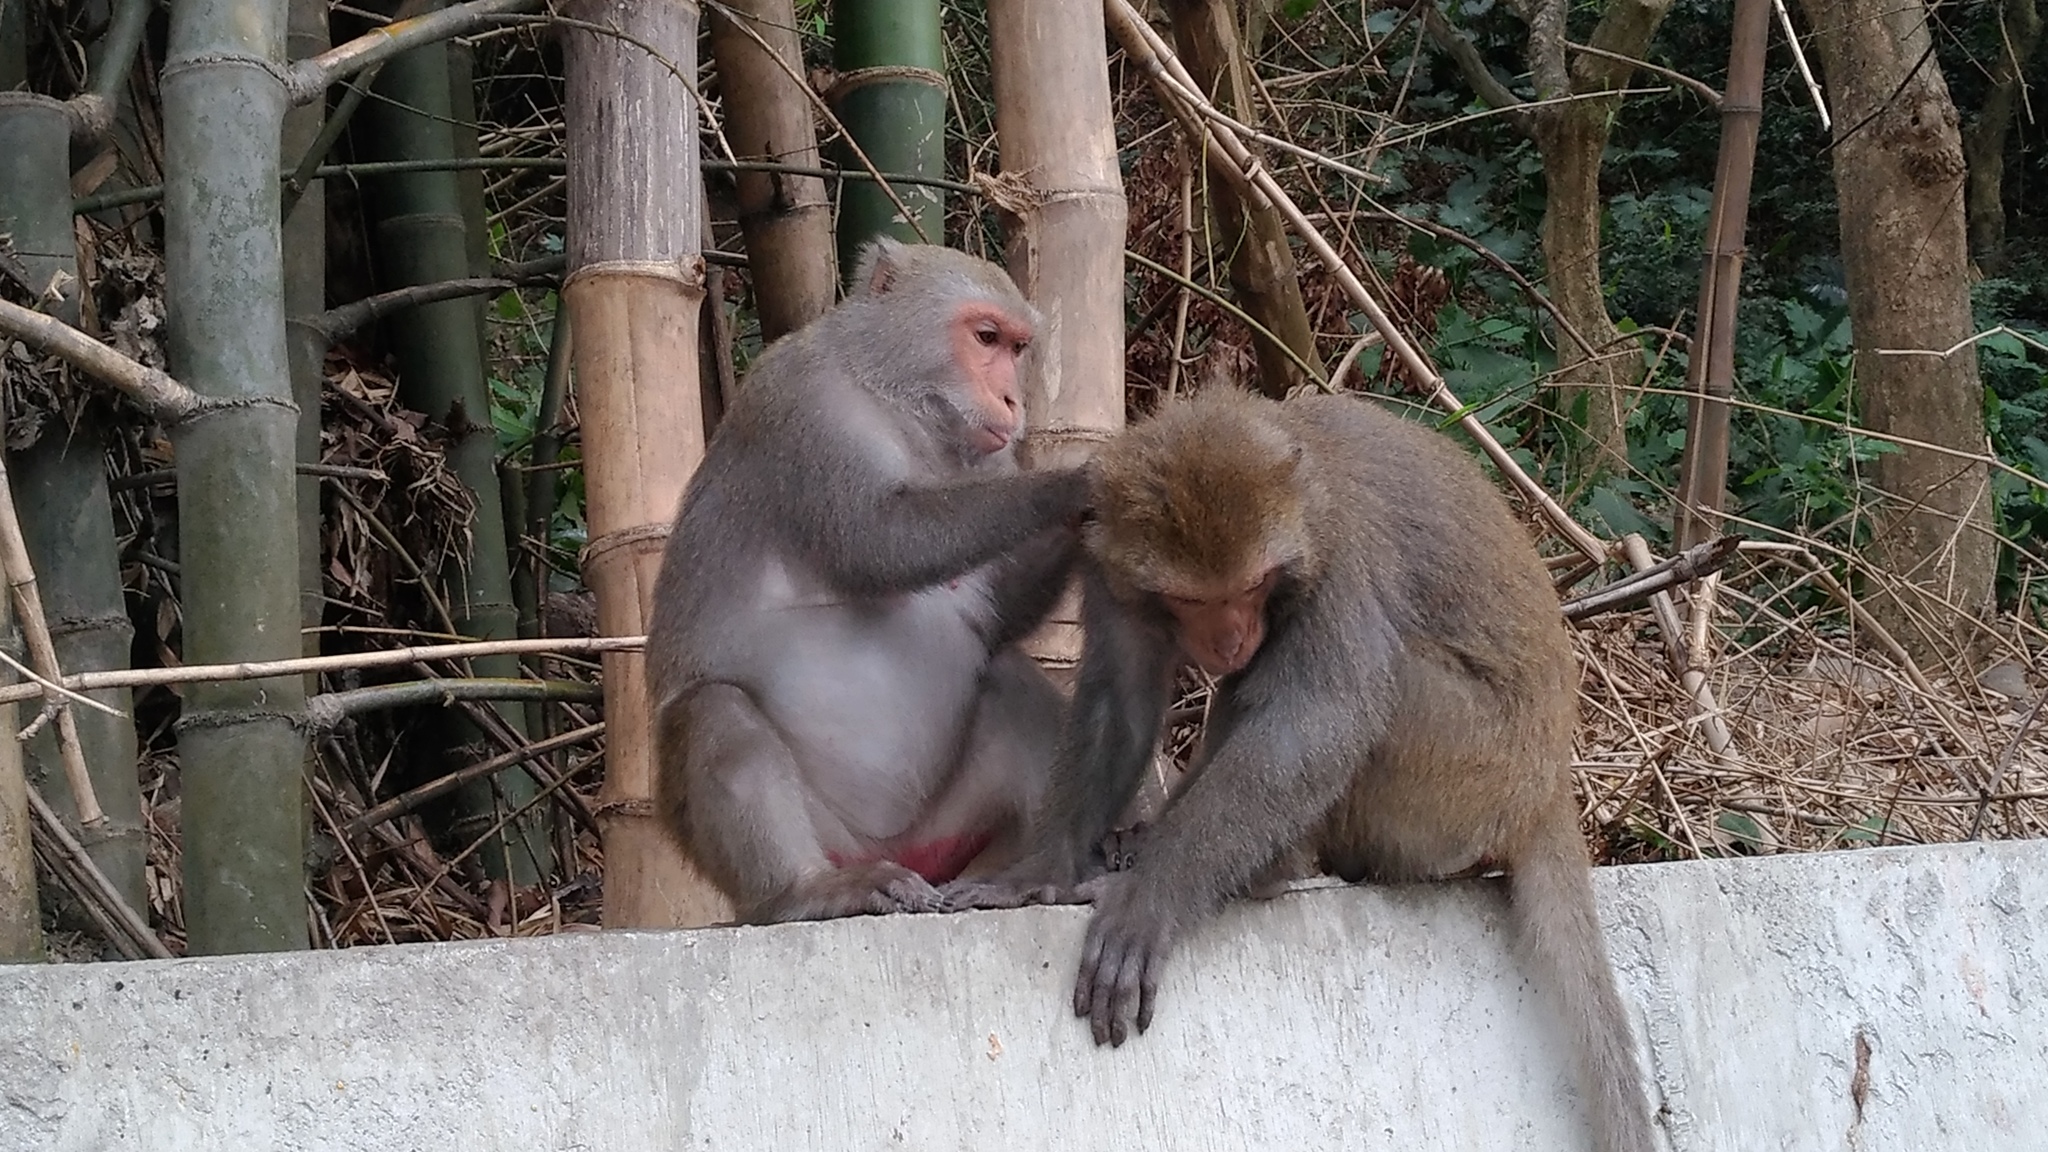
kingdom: Animalia
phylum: Chordata
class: Mammalia
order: Primates
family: Cercopithecidae
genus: Macaca
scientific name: Macaca cyclopis
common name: Formosan rock macaque
